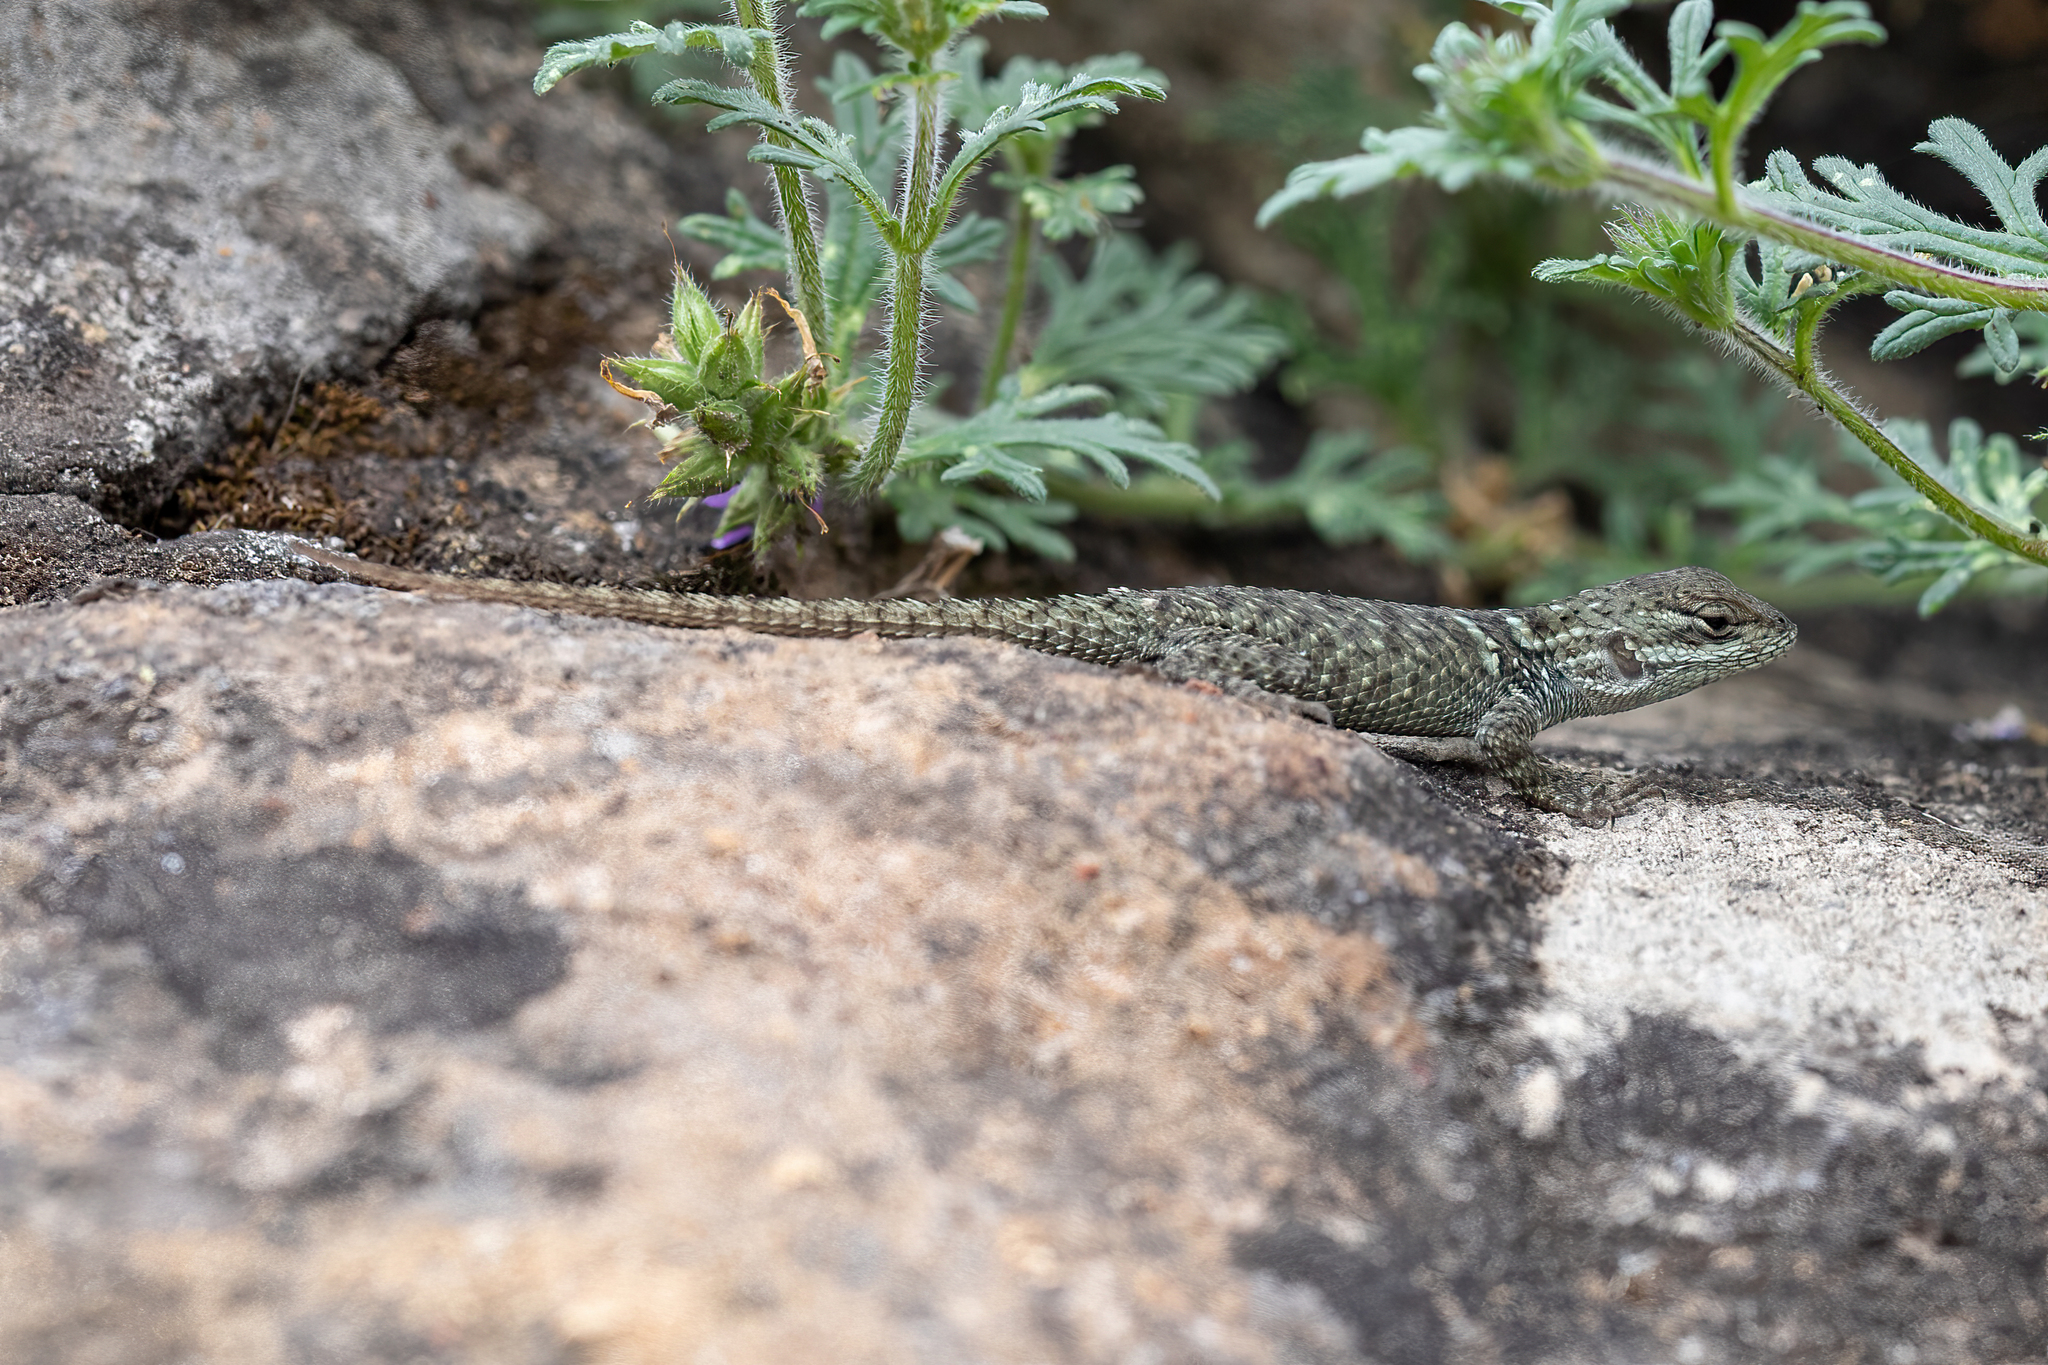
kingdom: Animalia
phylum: Chordata
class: Squamata
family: Phrynosomatidae
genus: Sceloporus
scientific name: Sceloporus torquatus
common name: Central plateau torquate lizard [melanogaster]
